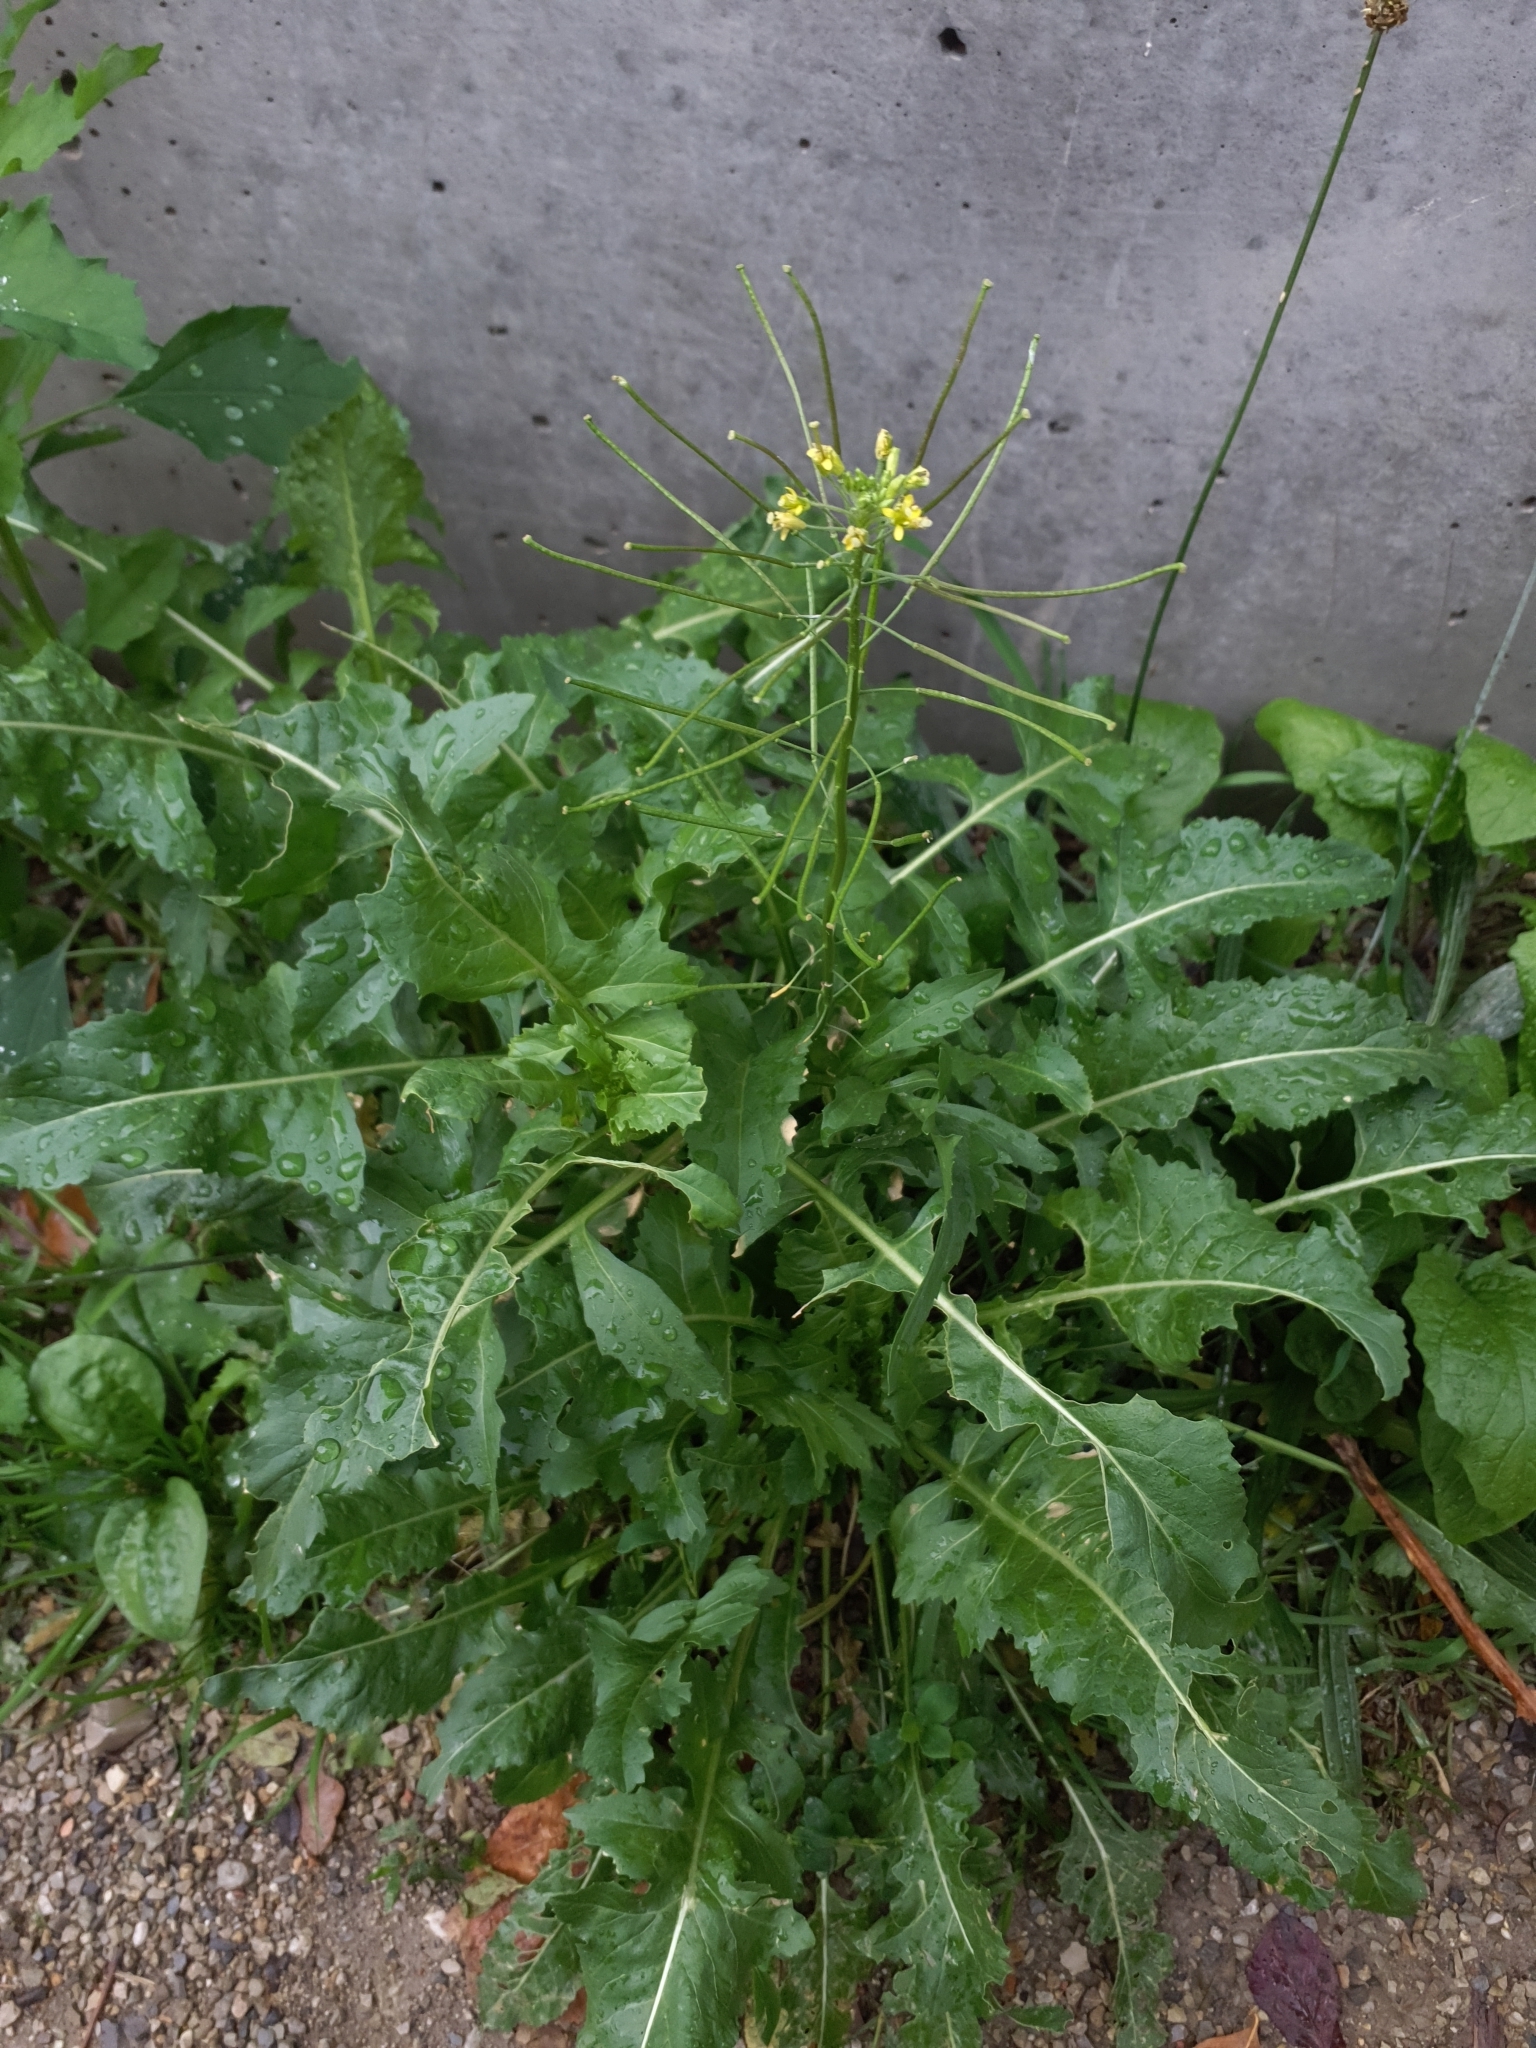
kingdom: Plantae
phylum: Tracheophyta
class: Magnoliopsida
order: Brassicales
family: Brassicaceae
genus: Sisymbrium
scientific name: Sisymbrium irio
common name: London rocket
